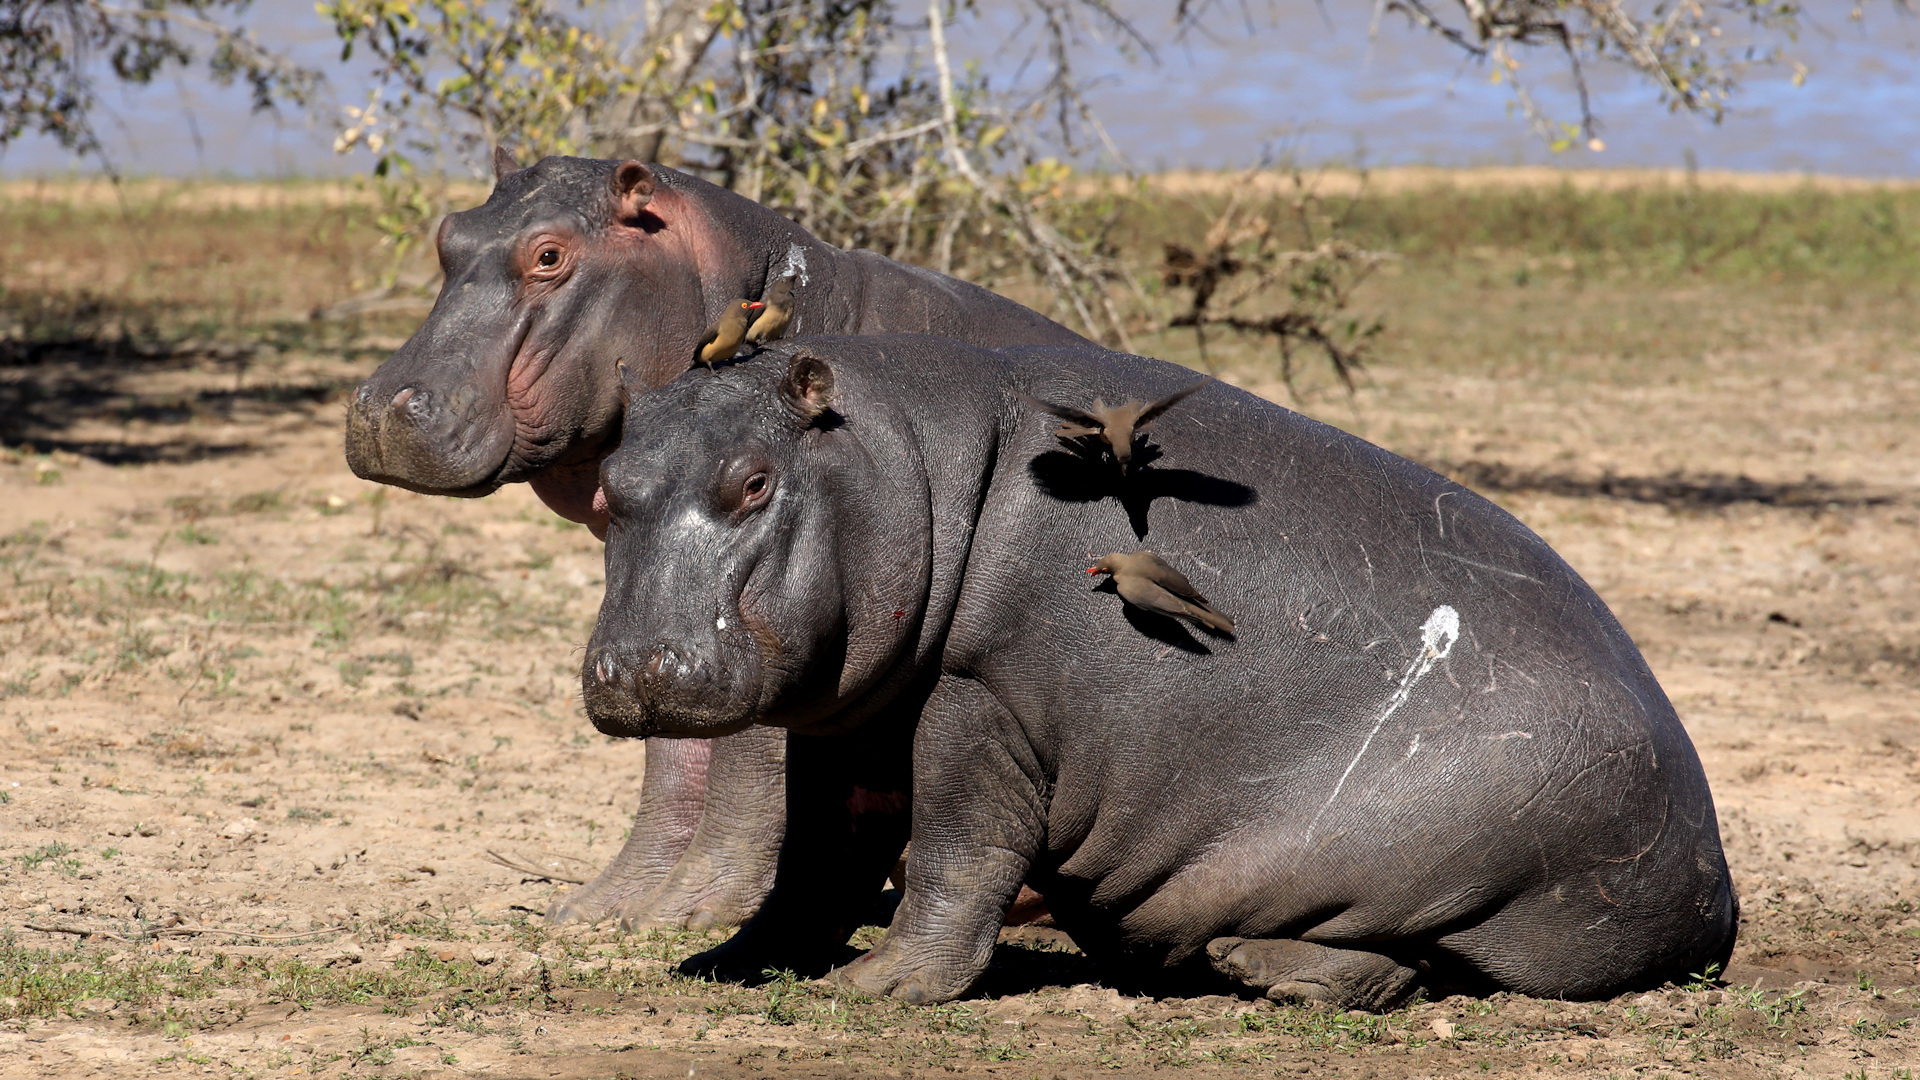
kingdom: Animalia
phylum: Chordata
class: Mammalia
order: Artiodactyla
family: Hippopotamidae
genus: Hippopotamus
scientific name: Hippopotamus amphibius
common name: Common hippopotamus
